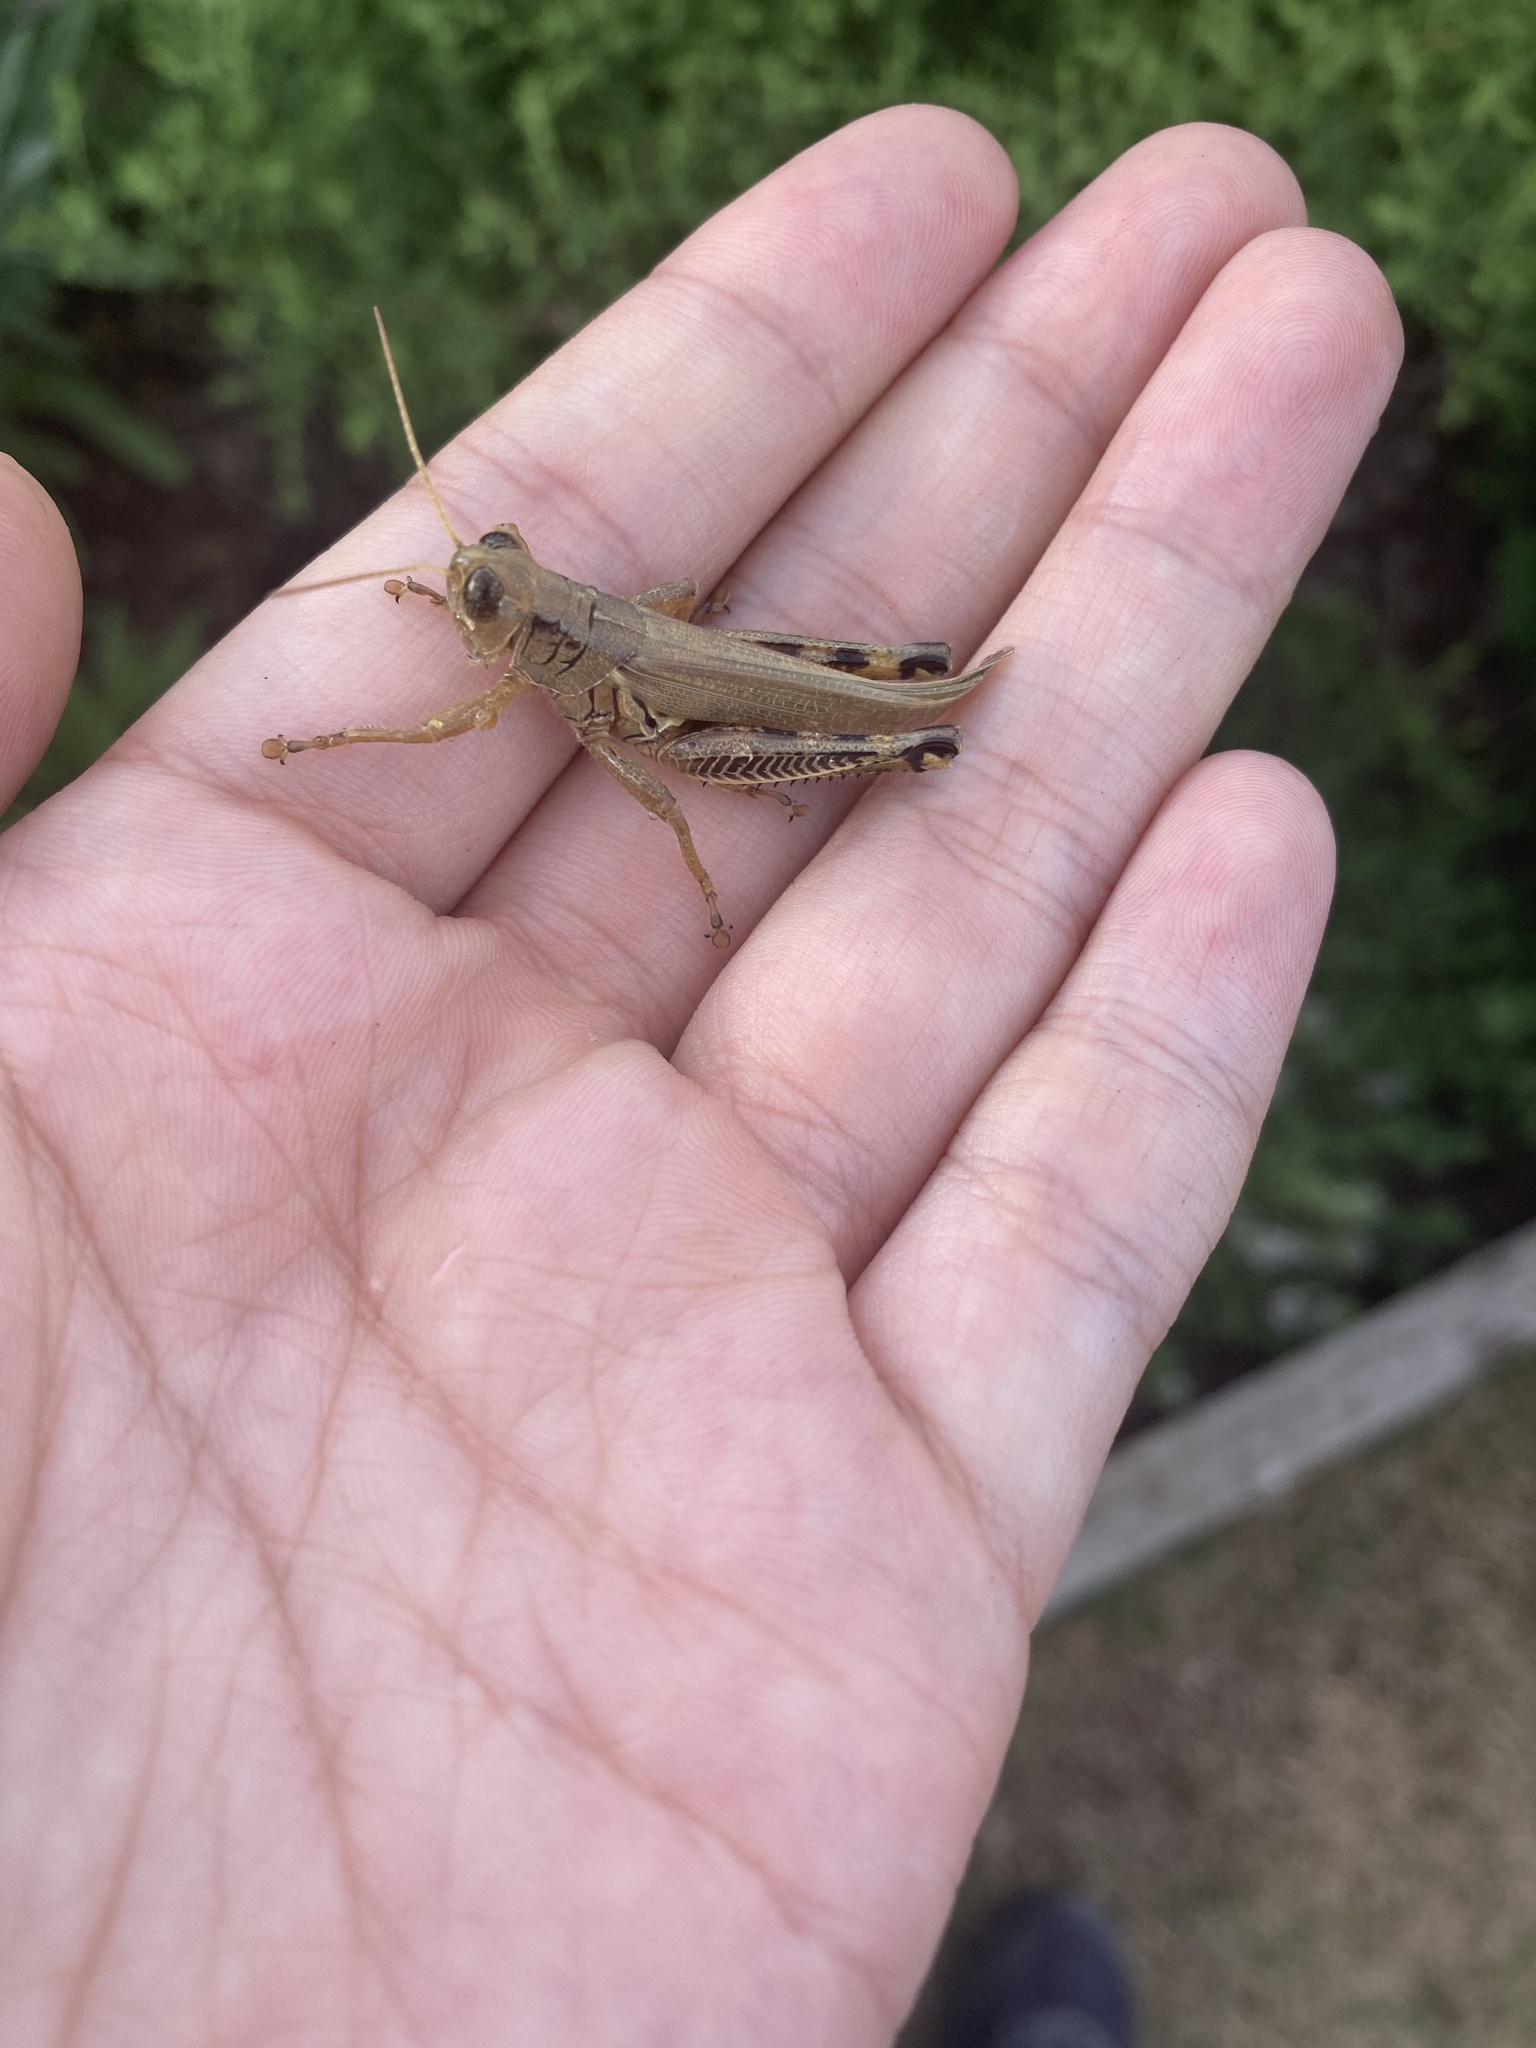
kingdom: Animalia
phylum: Arthropoda
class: Insecta
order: Orthoptera
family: Acrididae
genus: Melanoplus
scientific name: Melanoplus differentialis
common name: Differential grasshopper
